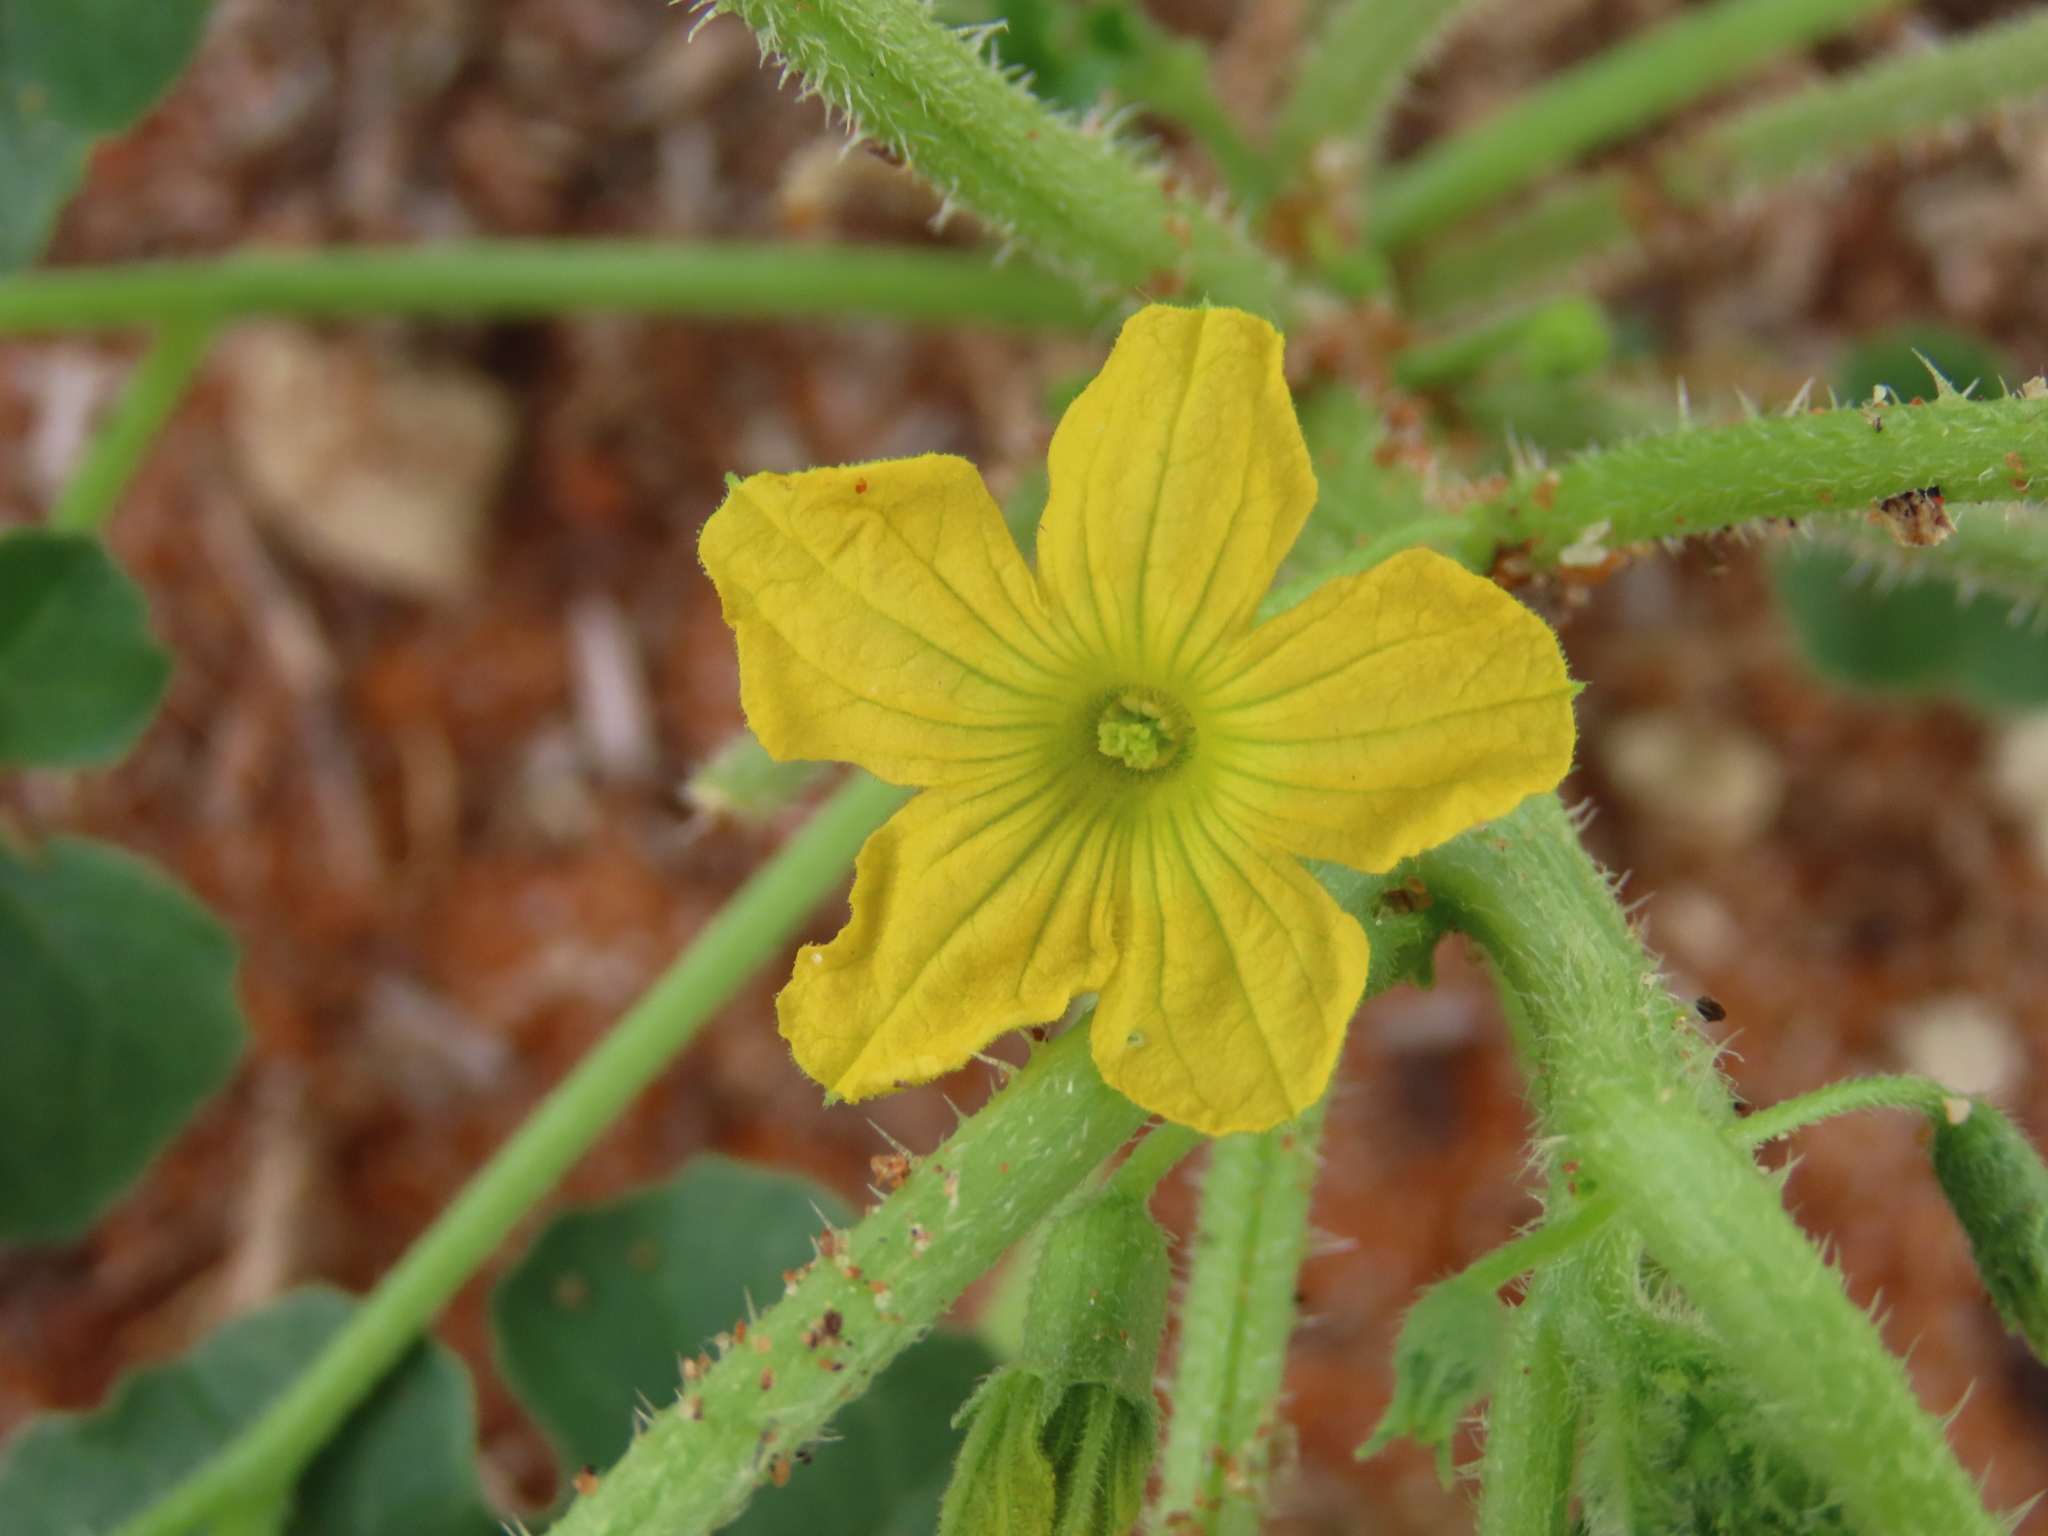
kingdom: Plantae
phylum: Tracheophyta
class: Magnoliopsida
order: Cucurbitales
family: Cucurbitaceae
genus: Cucumis
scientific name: Cucumis africanus
